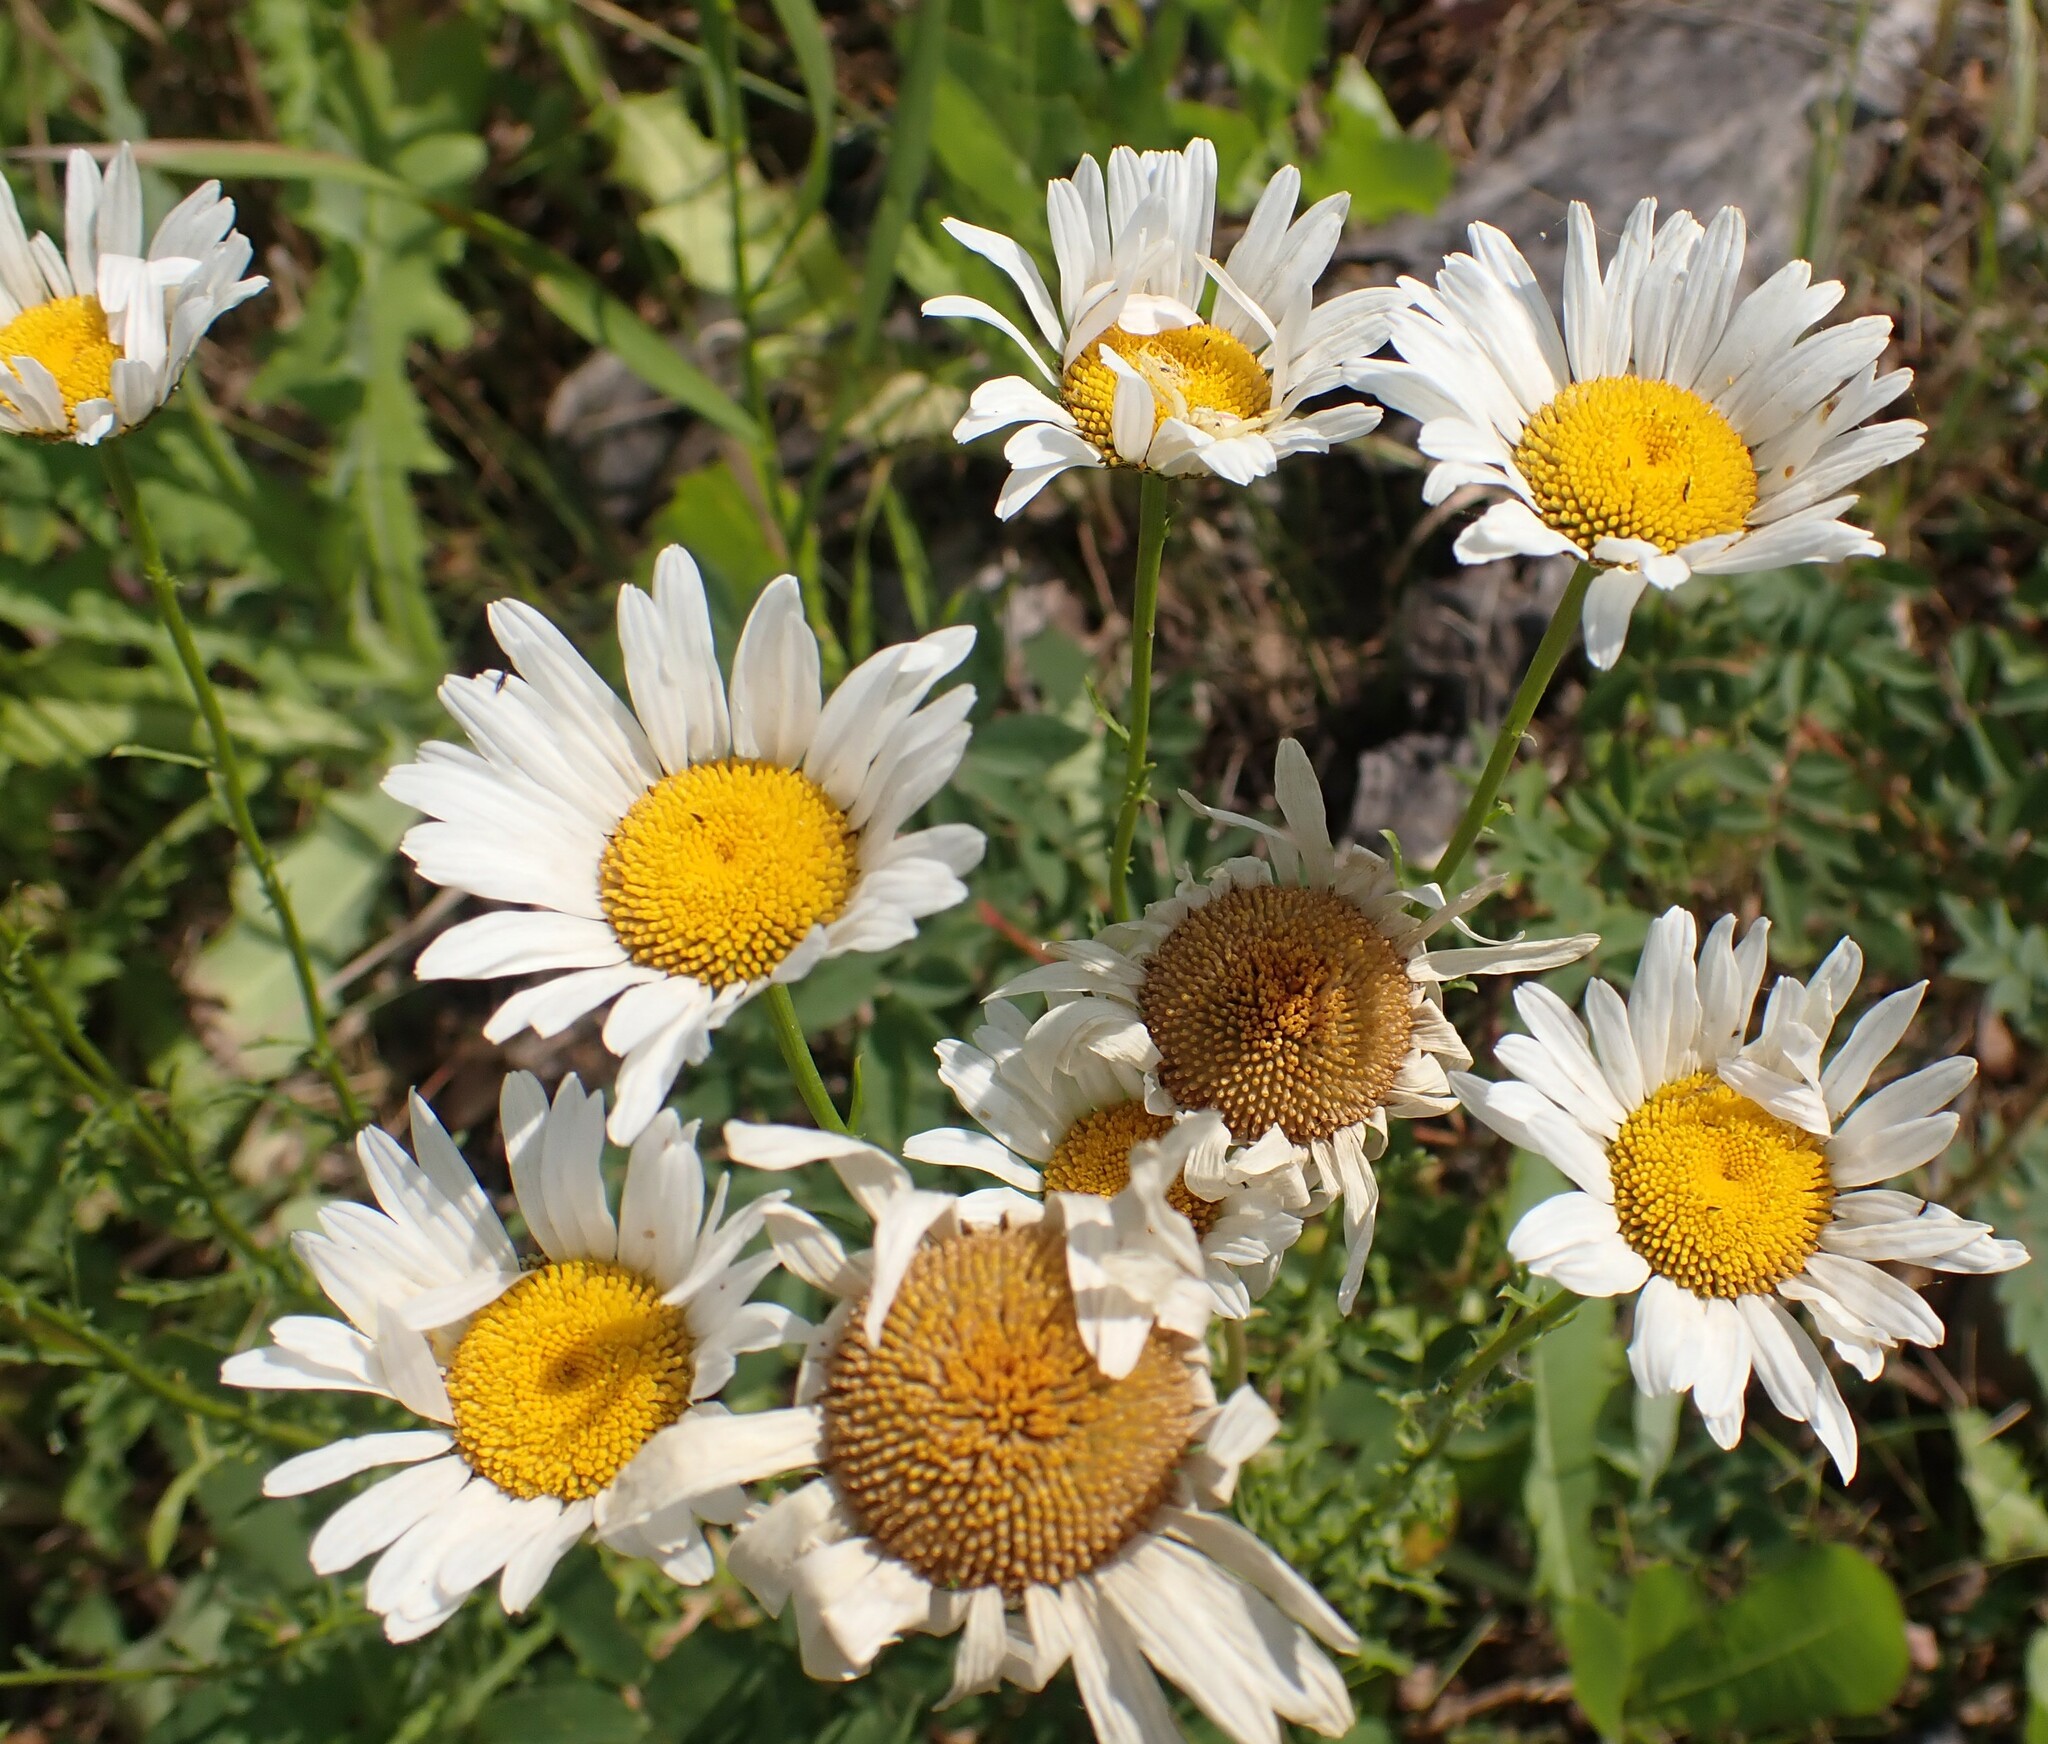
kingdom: Plantae
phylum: Tracheophyta
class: Magnoliopsida
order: Asterales
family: Asteraceae
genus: Leucanthemum
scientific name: Leucanthemum vulgare
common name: Oxeye daisy
